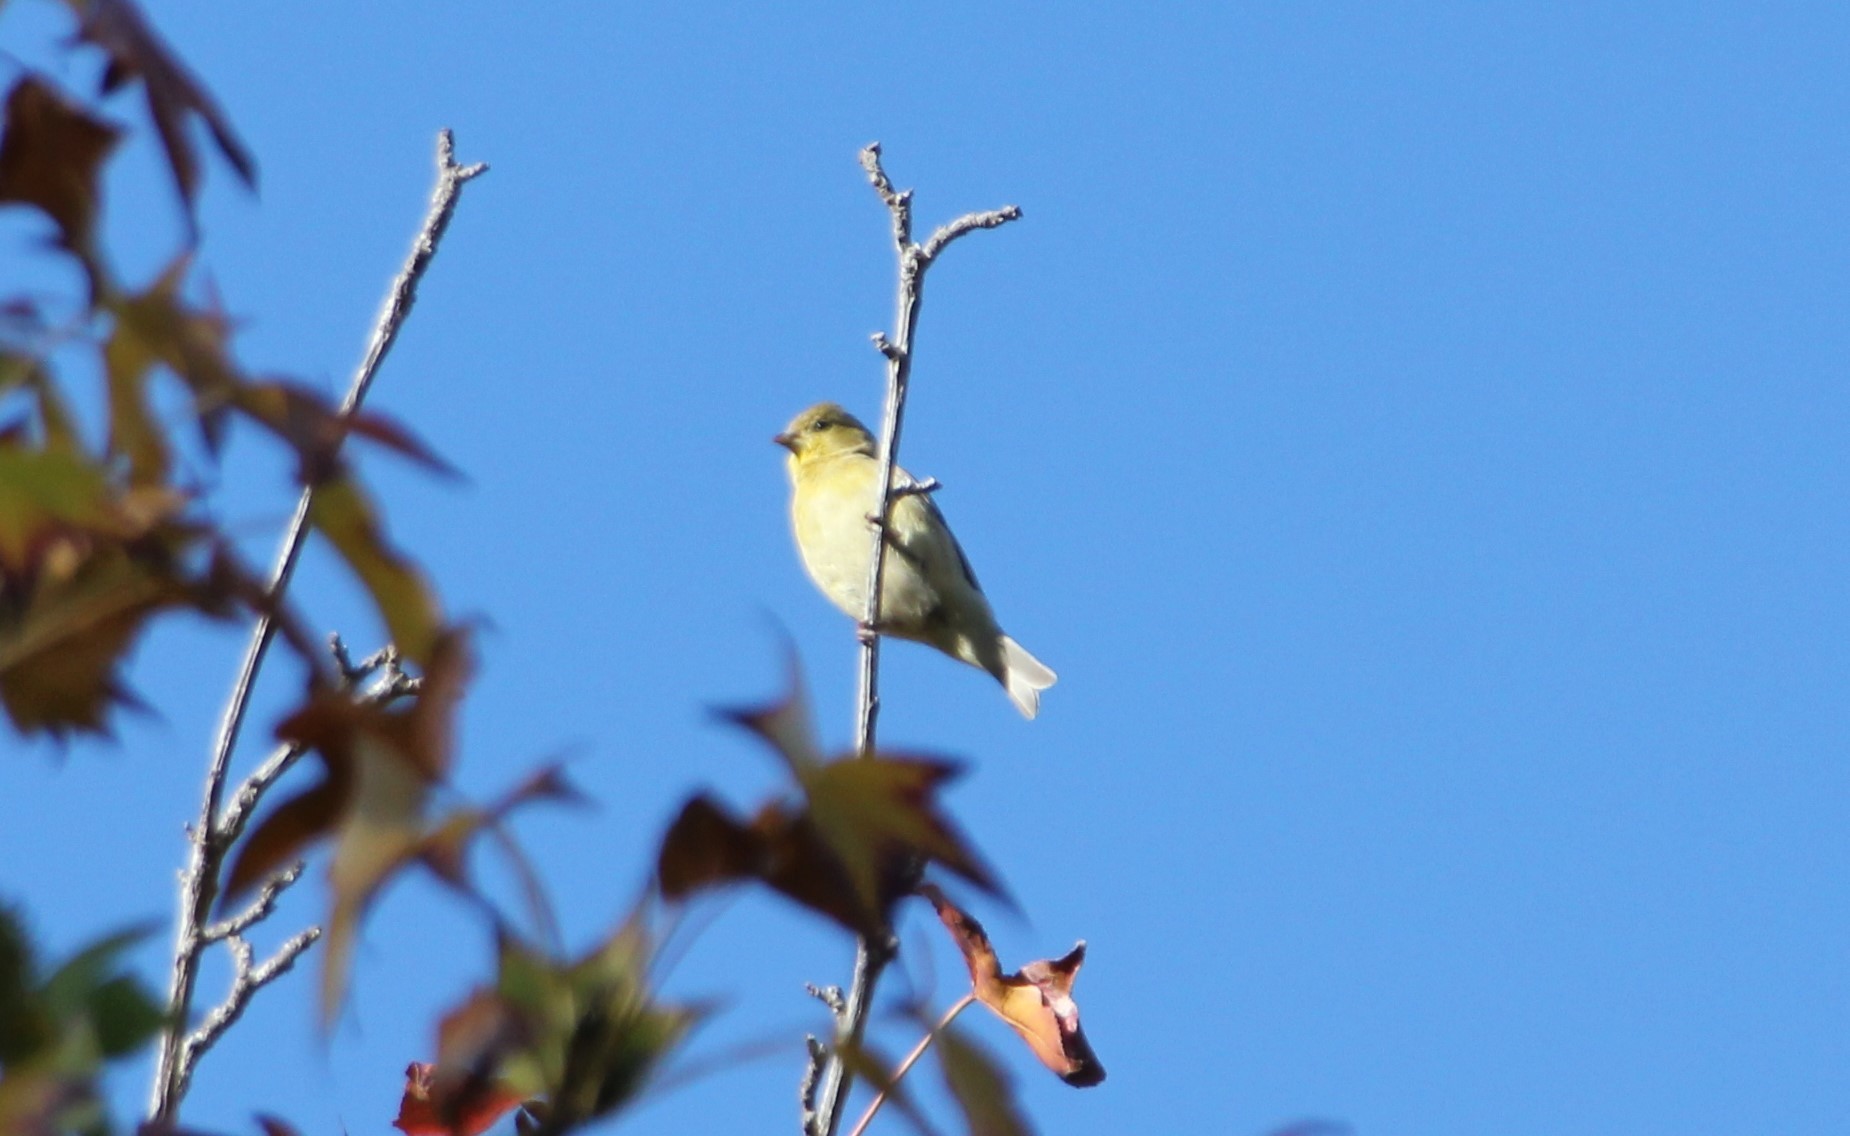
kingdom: Animalia
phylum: Chordata
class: Aves
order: Passeriformes
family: Fringillidae
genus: Spinus
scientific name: Spinus psaltria
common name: Lesser goldfinch
